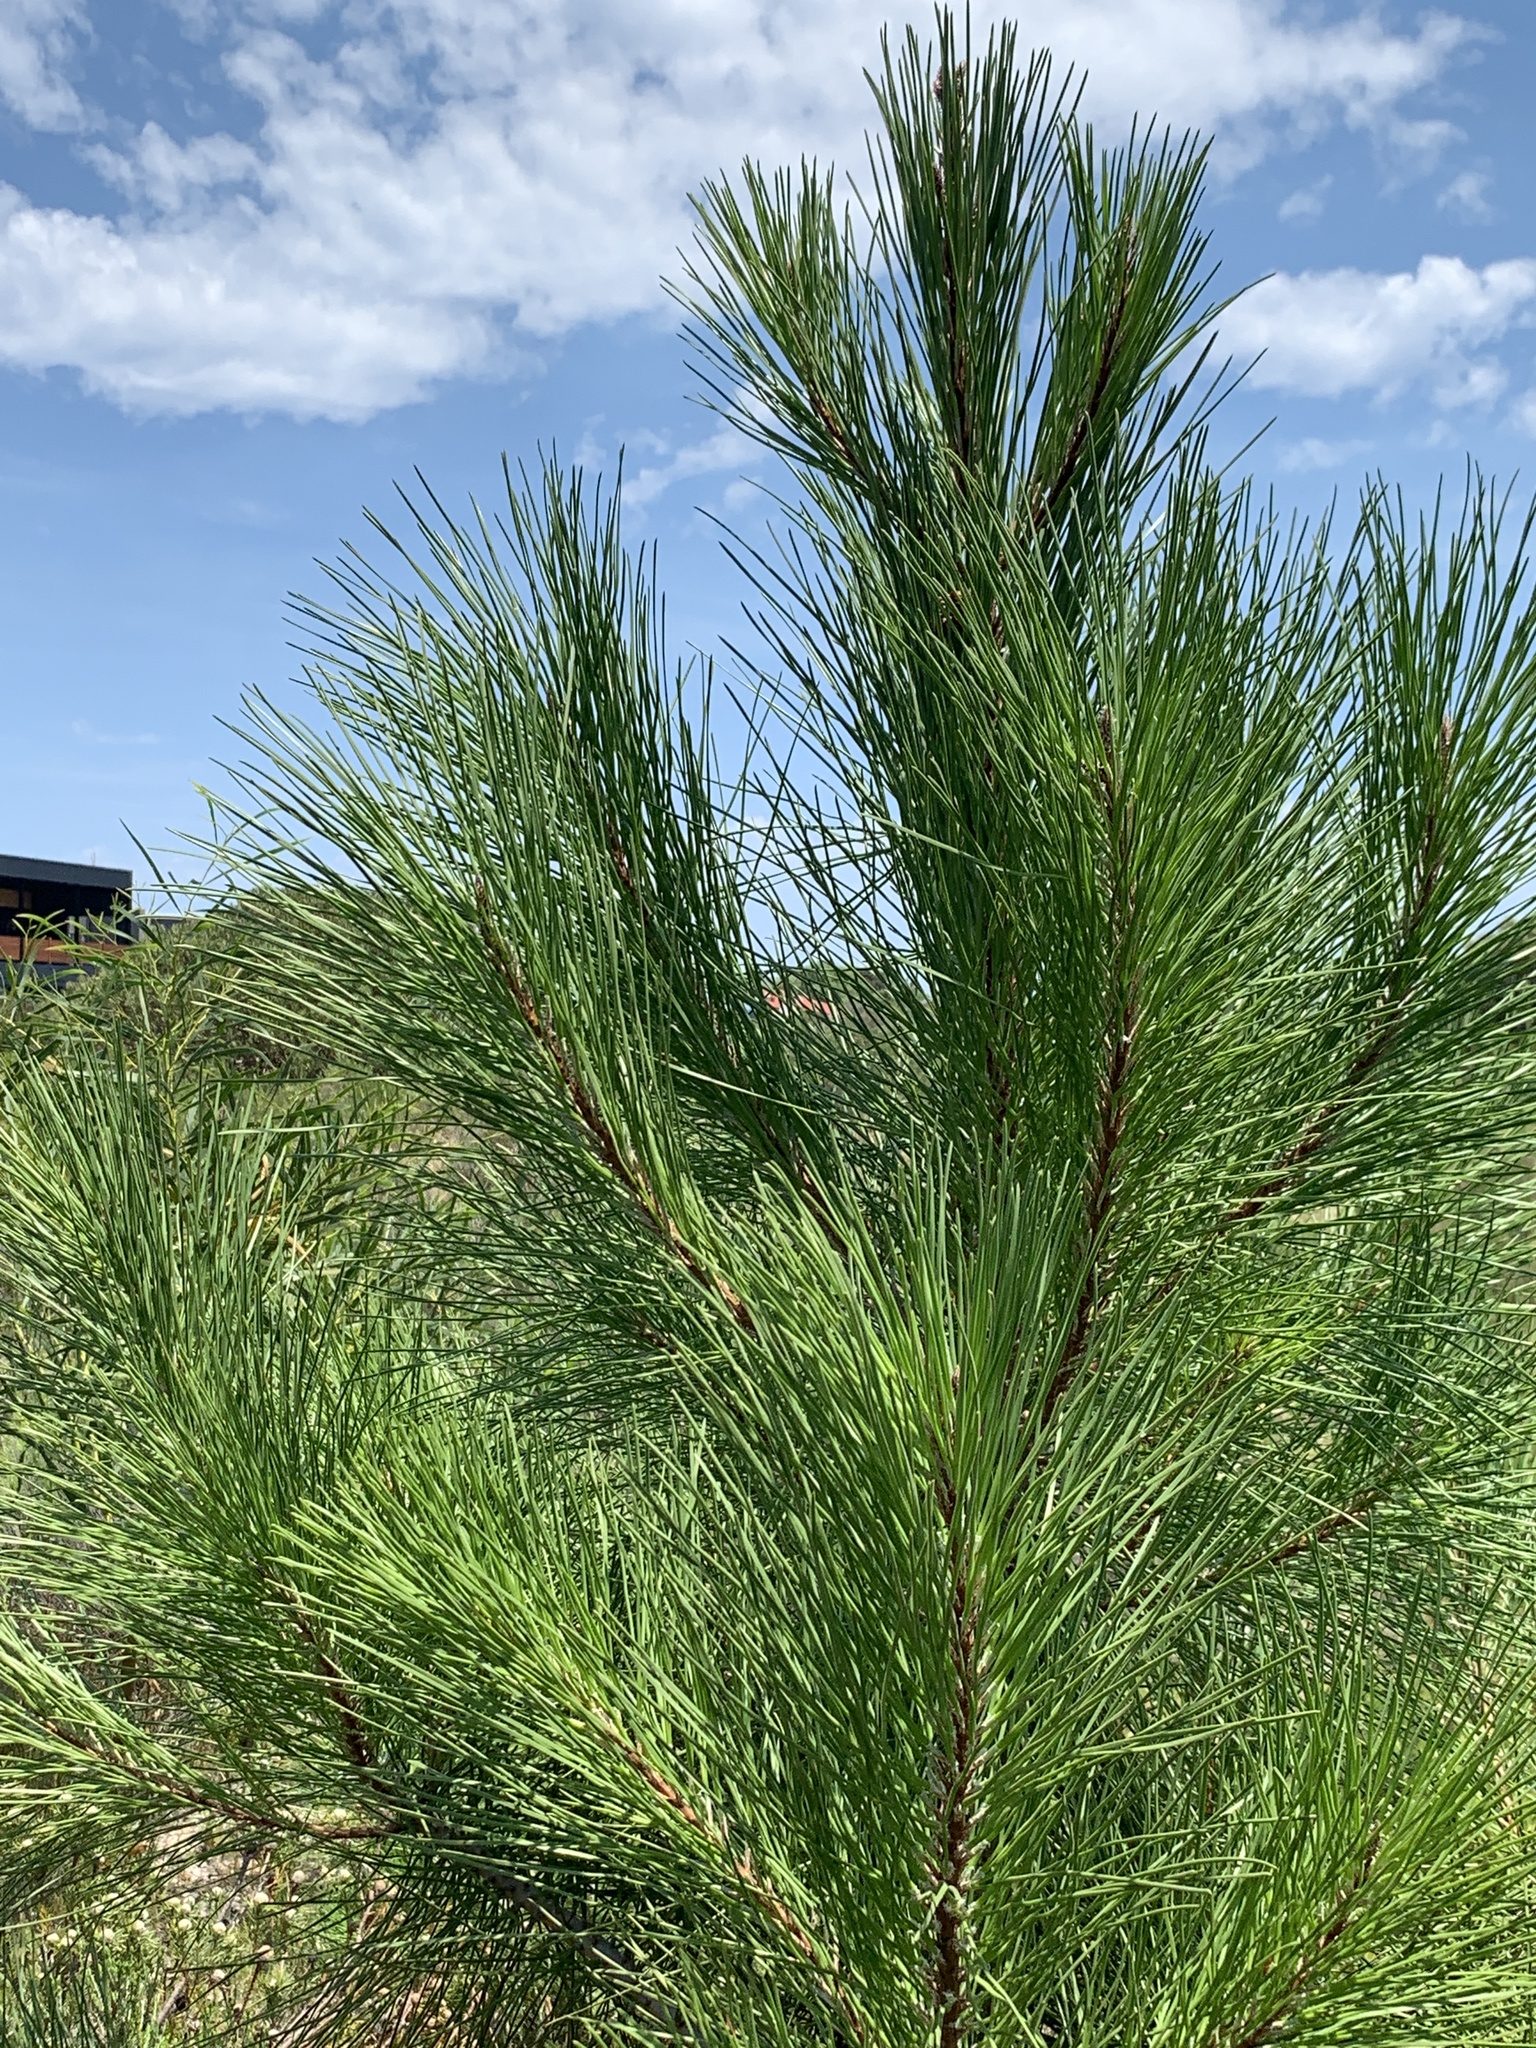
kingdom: Plantae
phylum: Tracheophyta
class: Pinopsida
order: Pinales
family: Pinaceae
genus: Pinus
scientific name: Pinus pinaster
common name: Maritime pine
